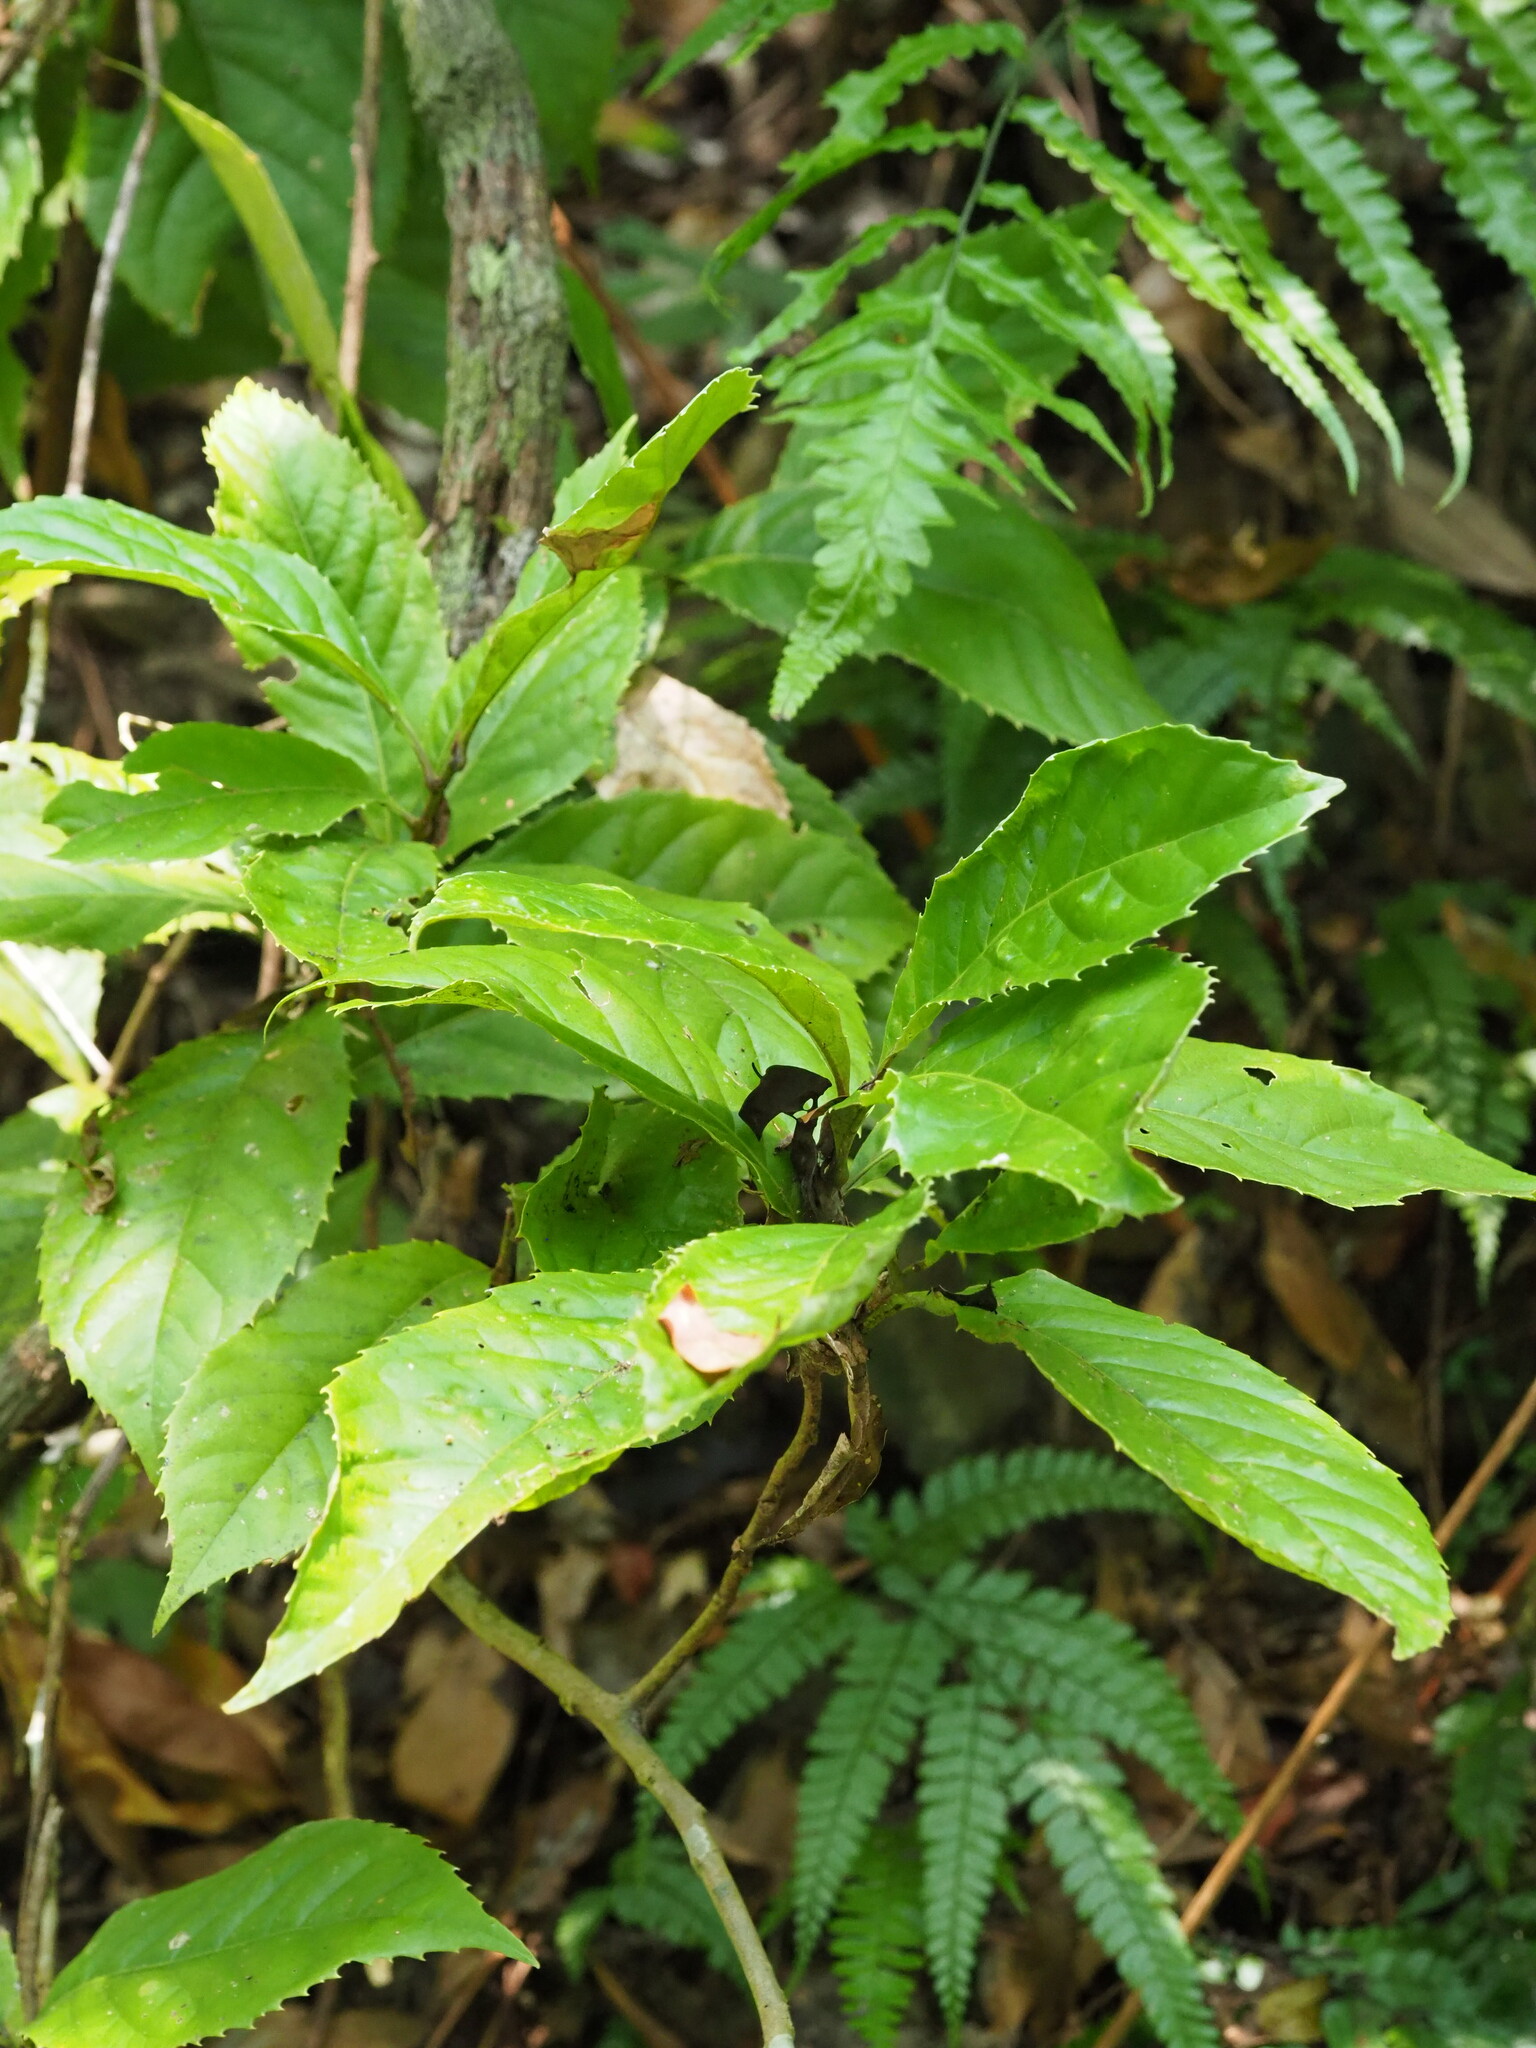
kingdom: Plantae
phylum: Tracheophyta
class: Magnoliopsida
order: Proteales
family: Proteaceae
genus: Helicia
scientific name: Helicia formosana
